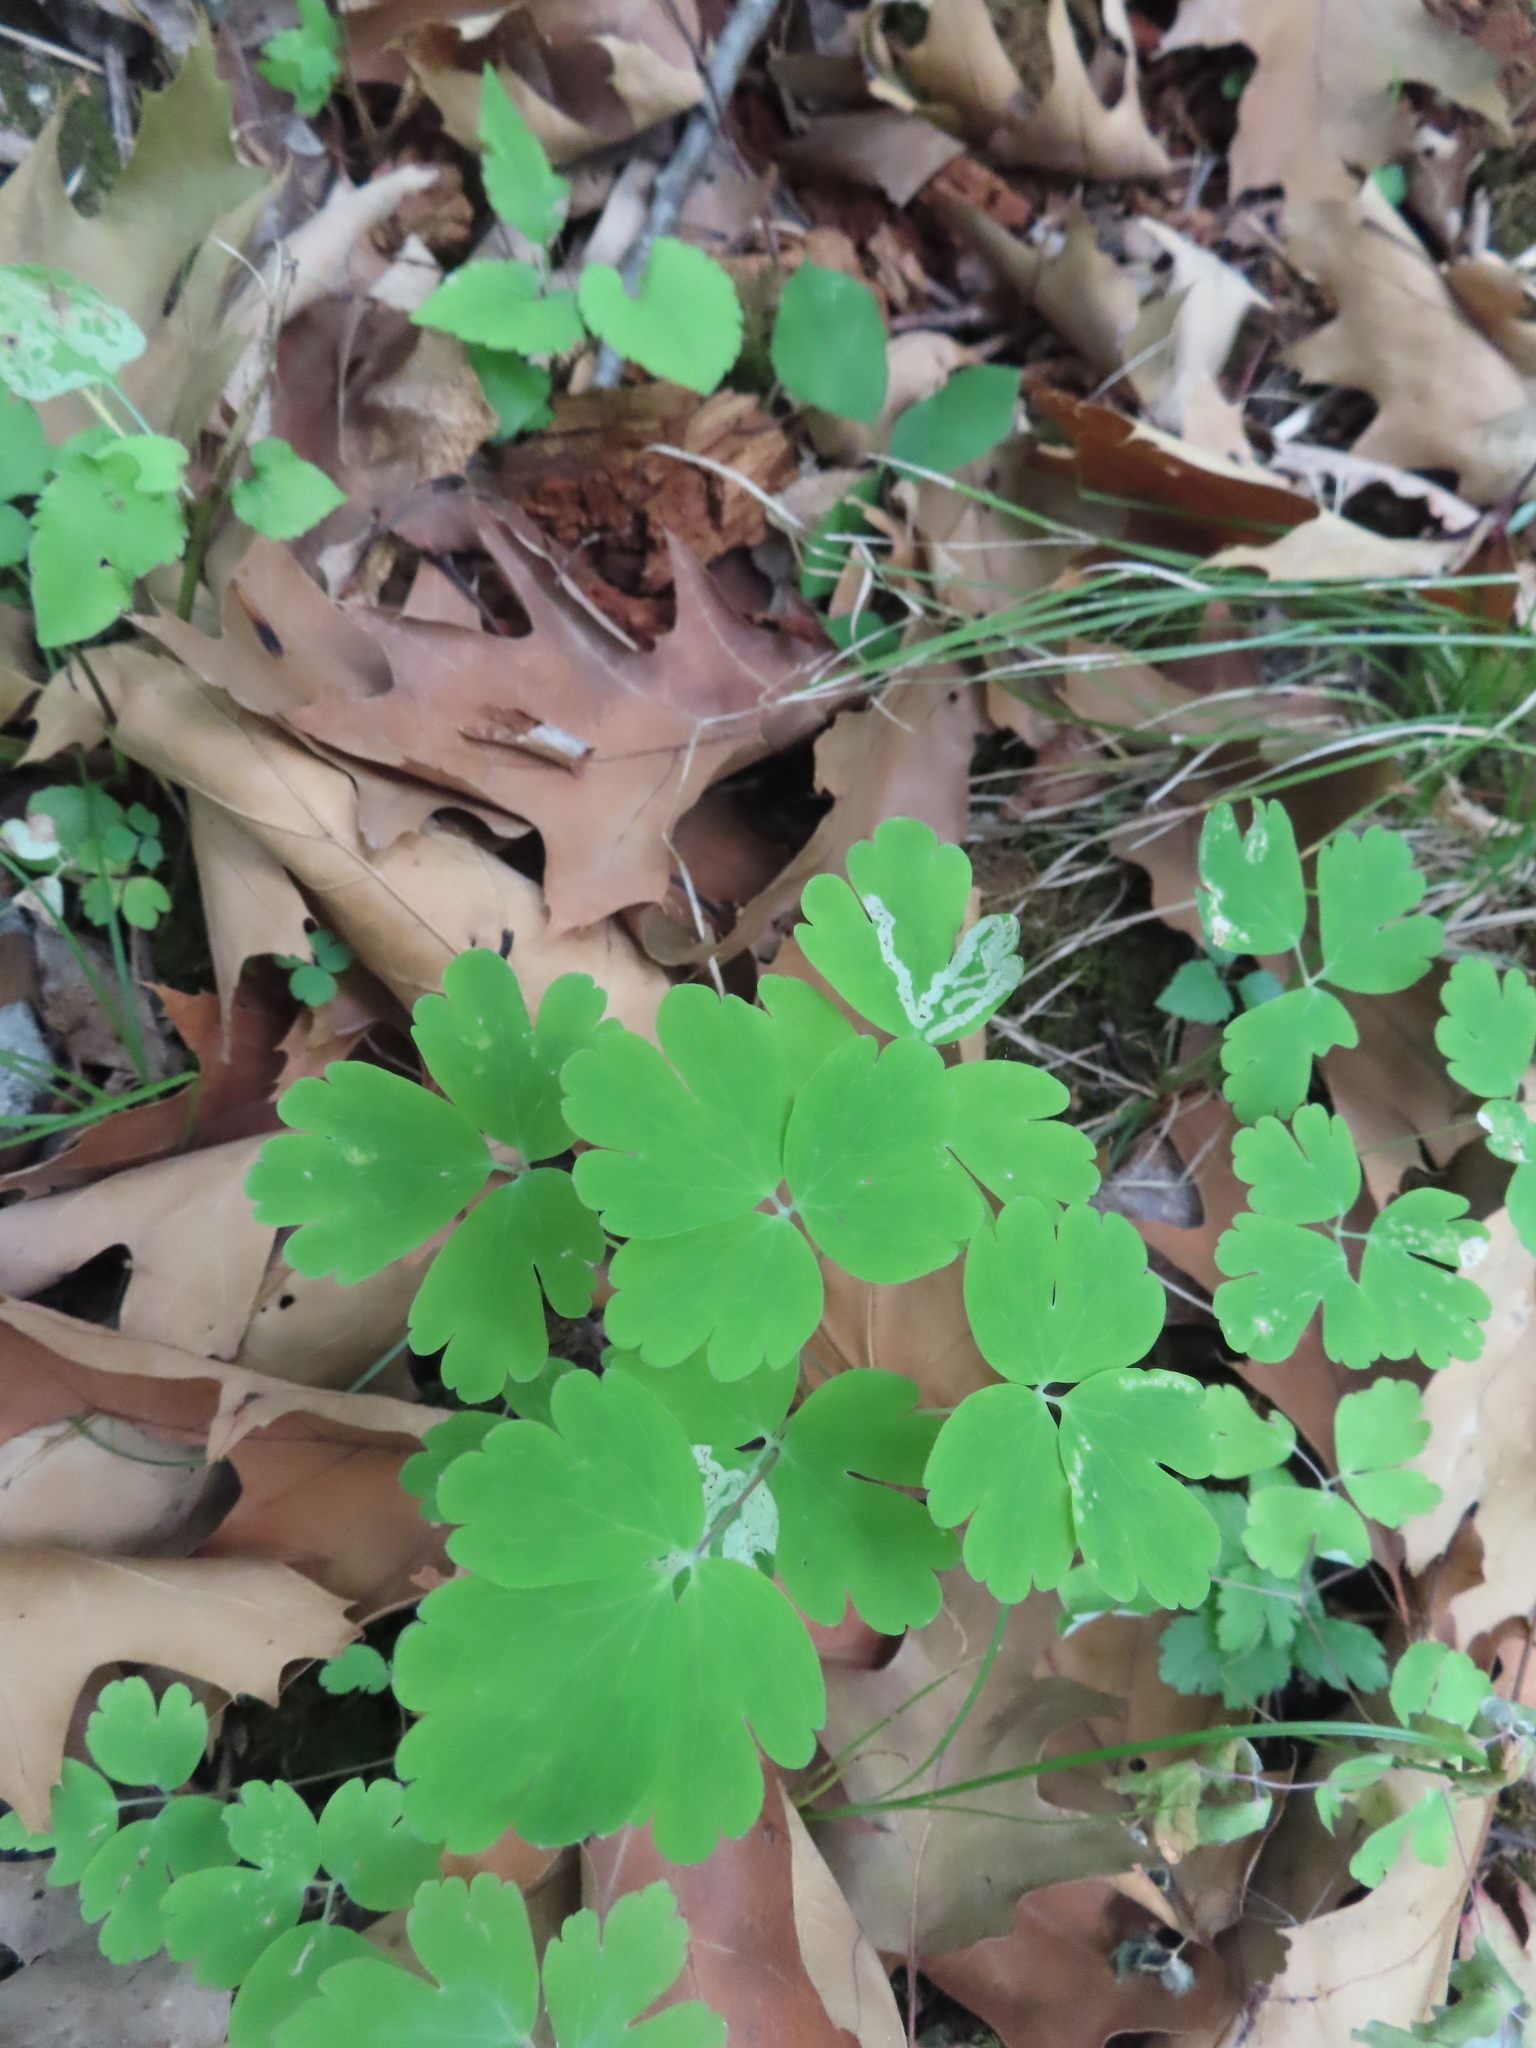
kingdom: Plantae
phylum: Tracheophyta
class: Magnoliopsida
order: Ranunculales
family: Ranunculaceae
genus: Aquilegia
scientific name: Aquilegia canadensis
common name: American columbine
